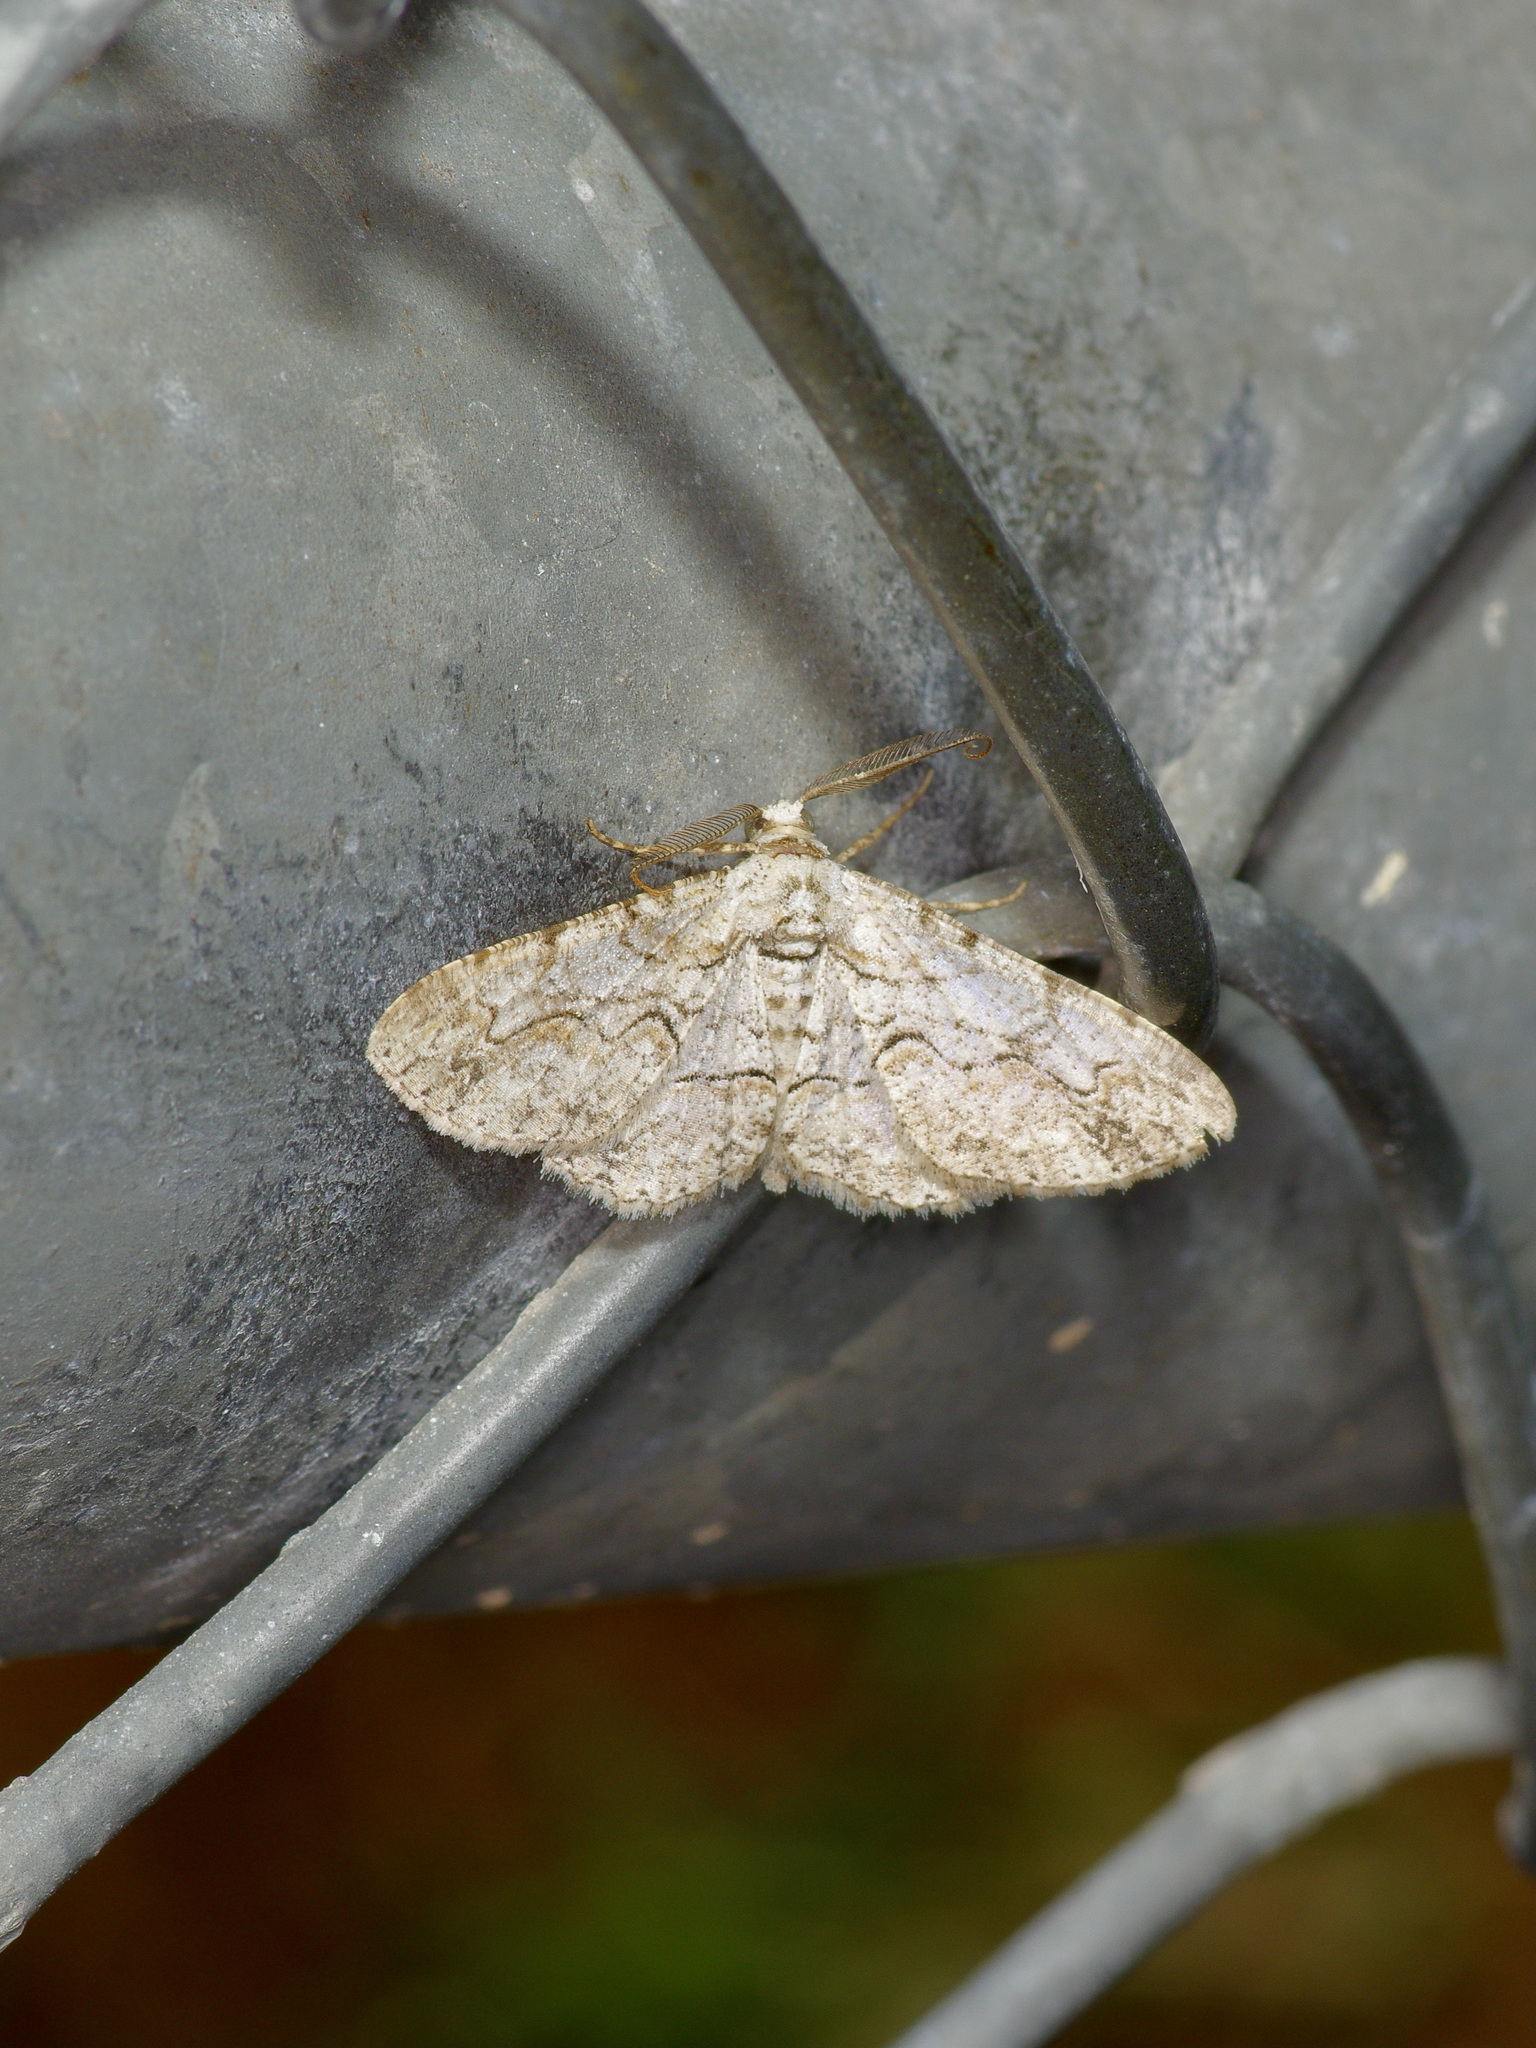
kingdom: Animalia
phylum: Arthropoda
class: Insecta
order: Lepidoptera
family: Geometridae
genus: Iridopsis
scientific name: Iridopsis defectaria
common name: Brown-shaded gray
